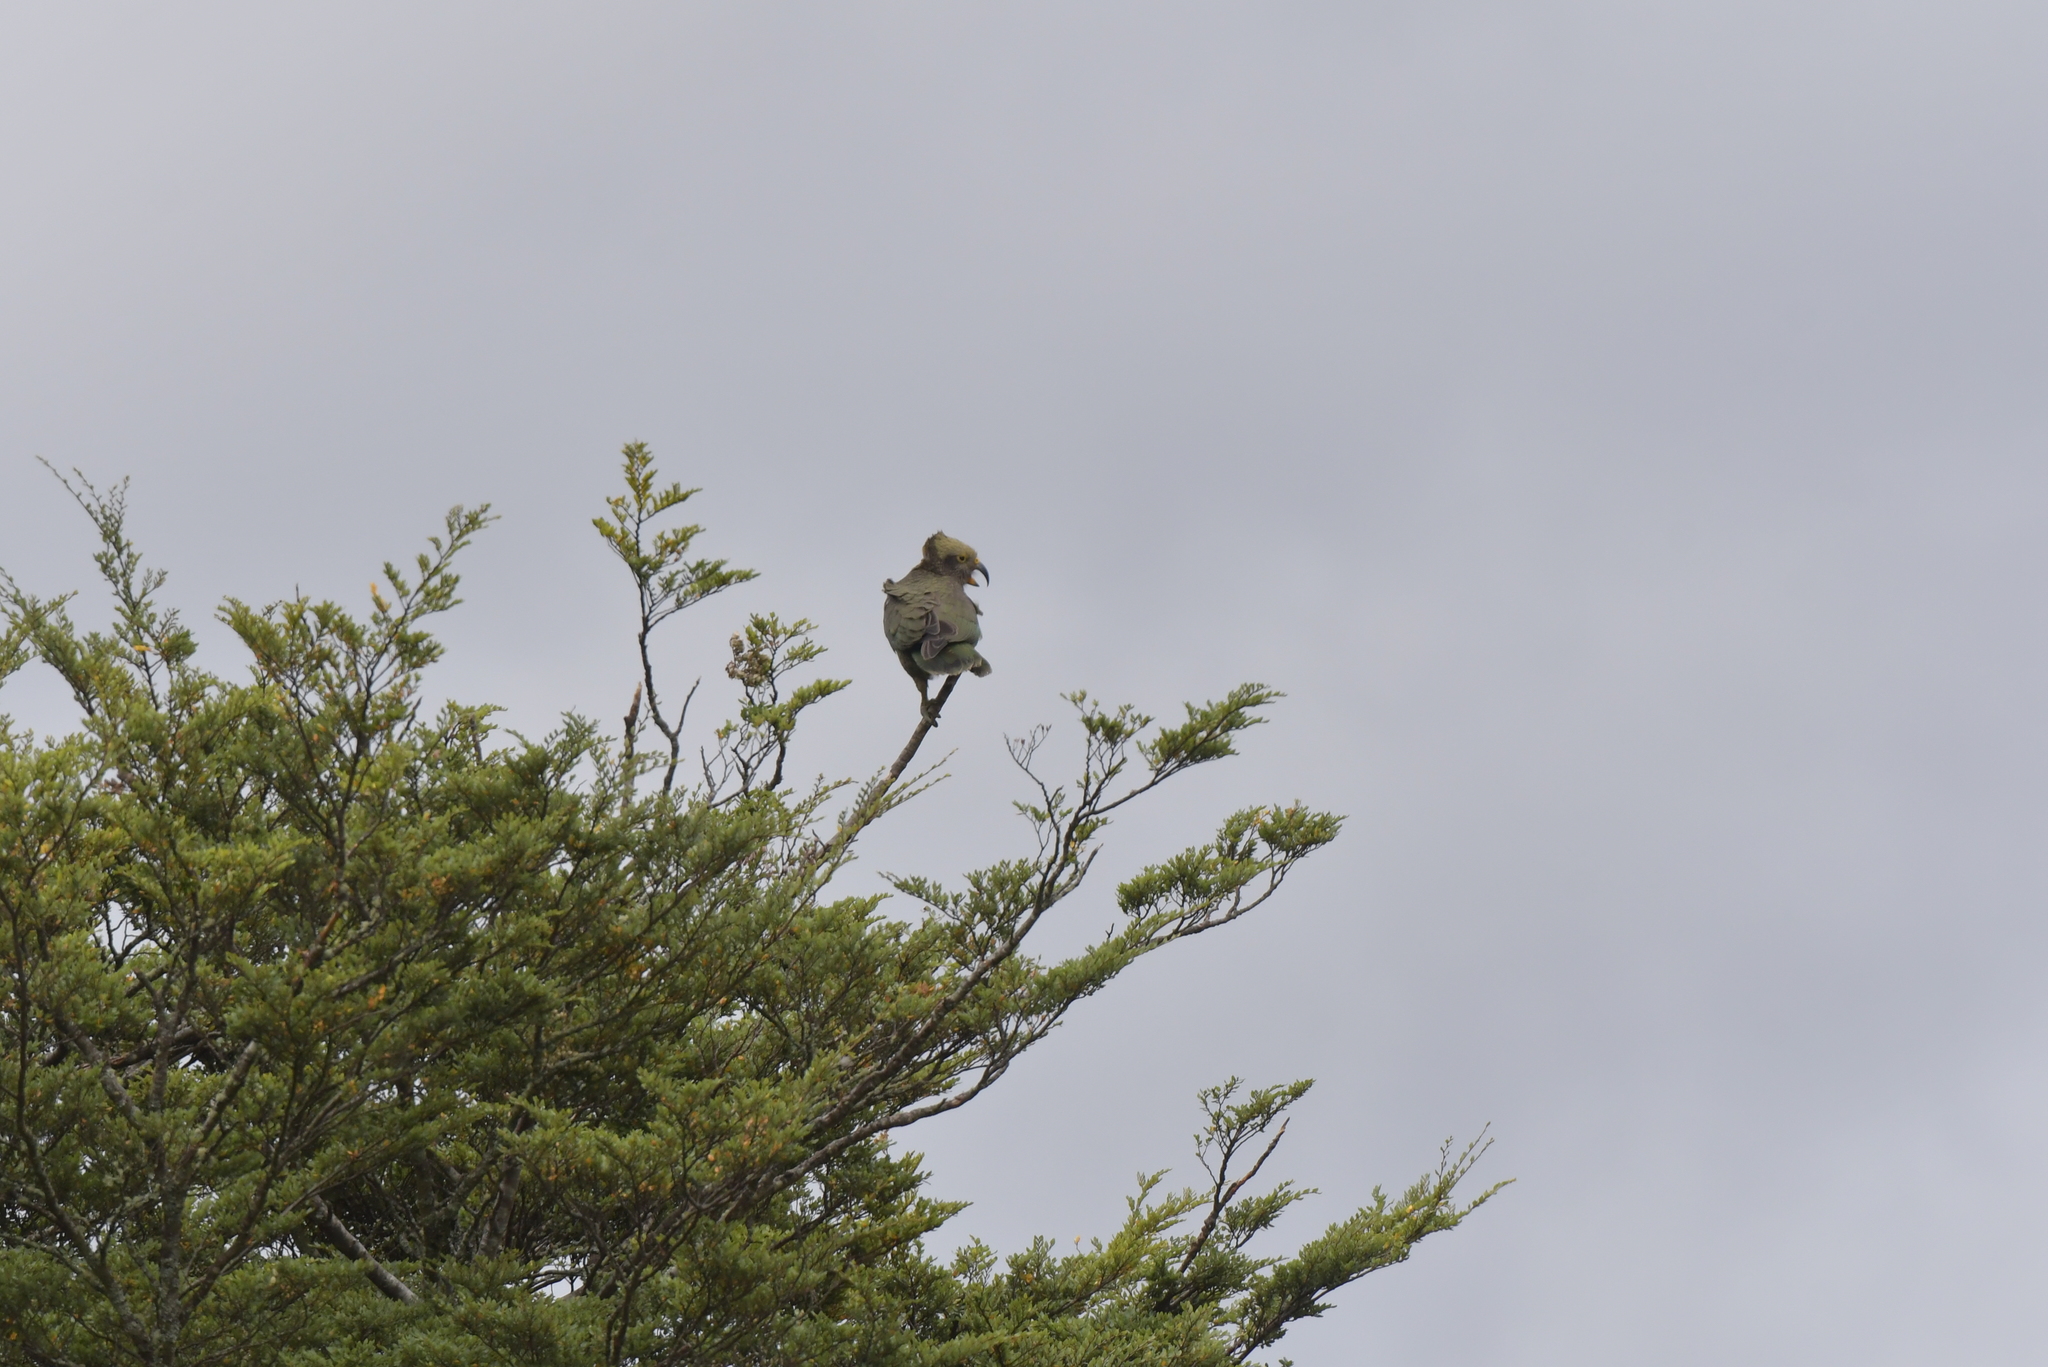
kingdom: Animalia
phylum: Chordata
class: Aves
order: Psittaciformes
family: Psittacidae
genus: Nestor
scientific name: Nestor notabilis
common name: Kea
